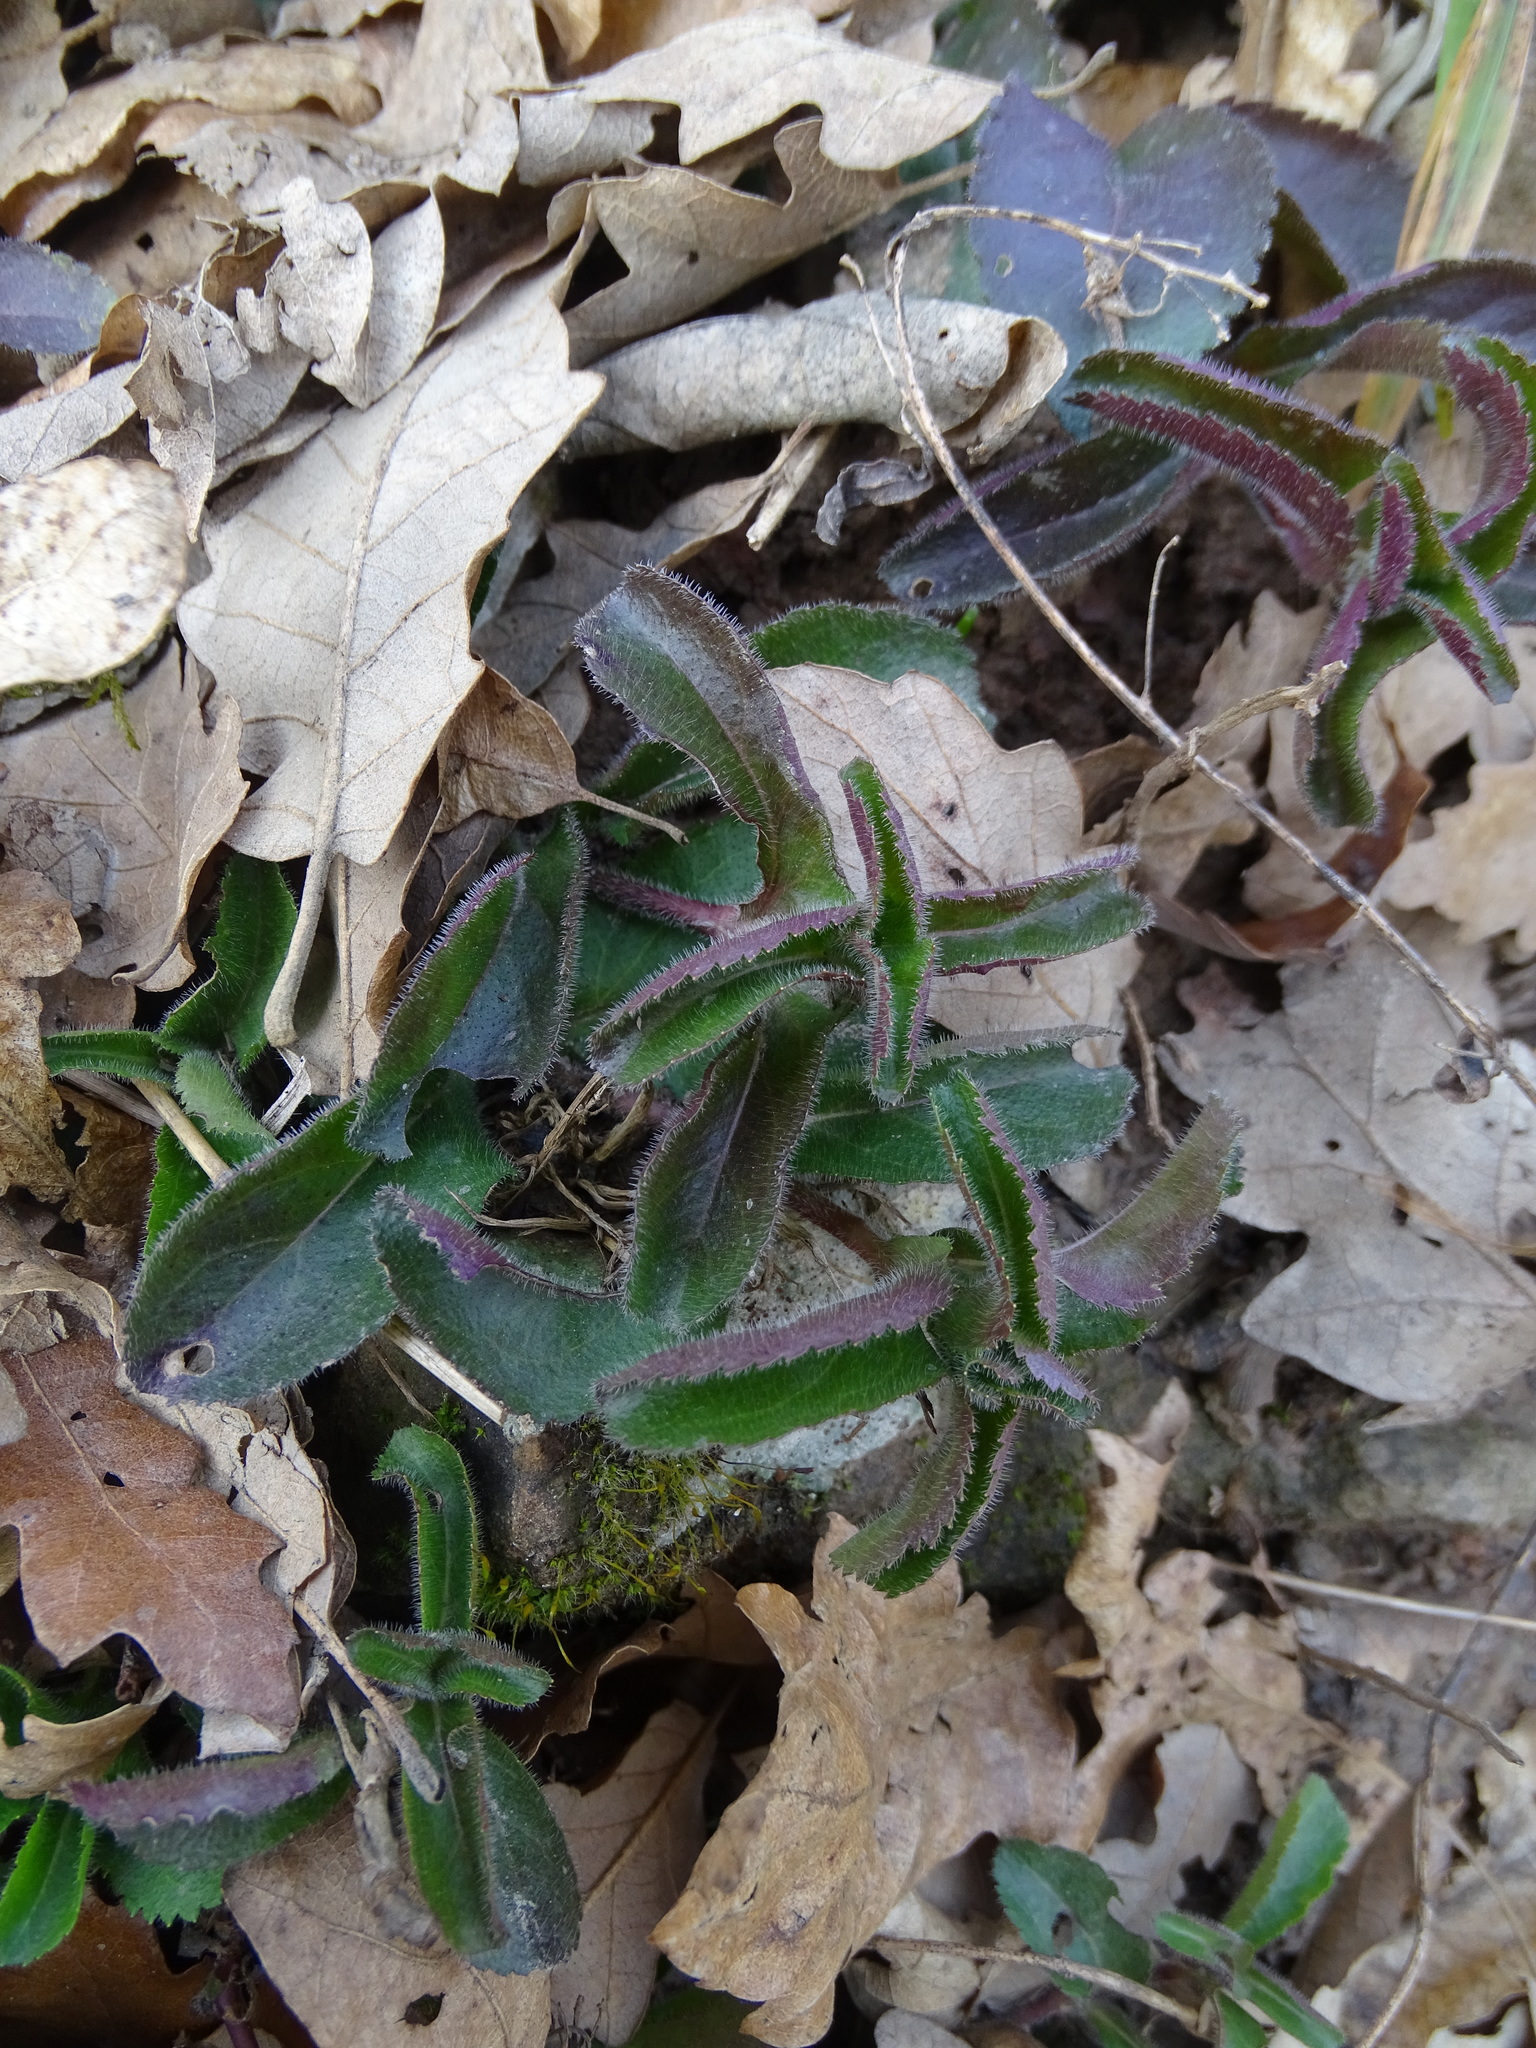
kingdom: Plantae
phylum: Tracheophyta
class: Magnoliopsida
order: Lamiales
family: Plantaginaceae
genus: Veronica
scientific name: Veronica officinalis
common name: Common speedwell
